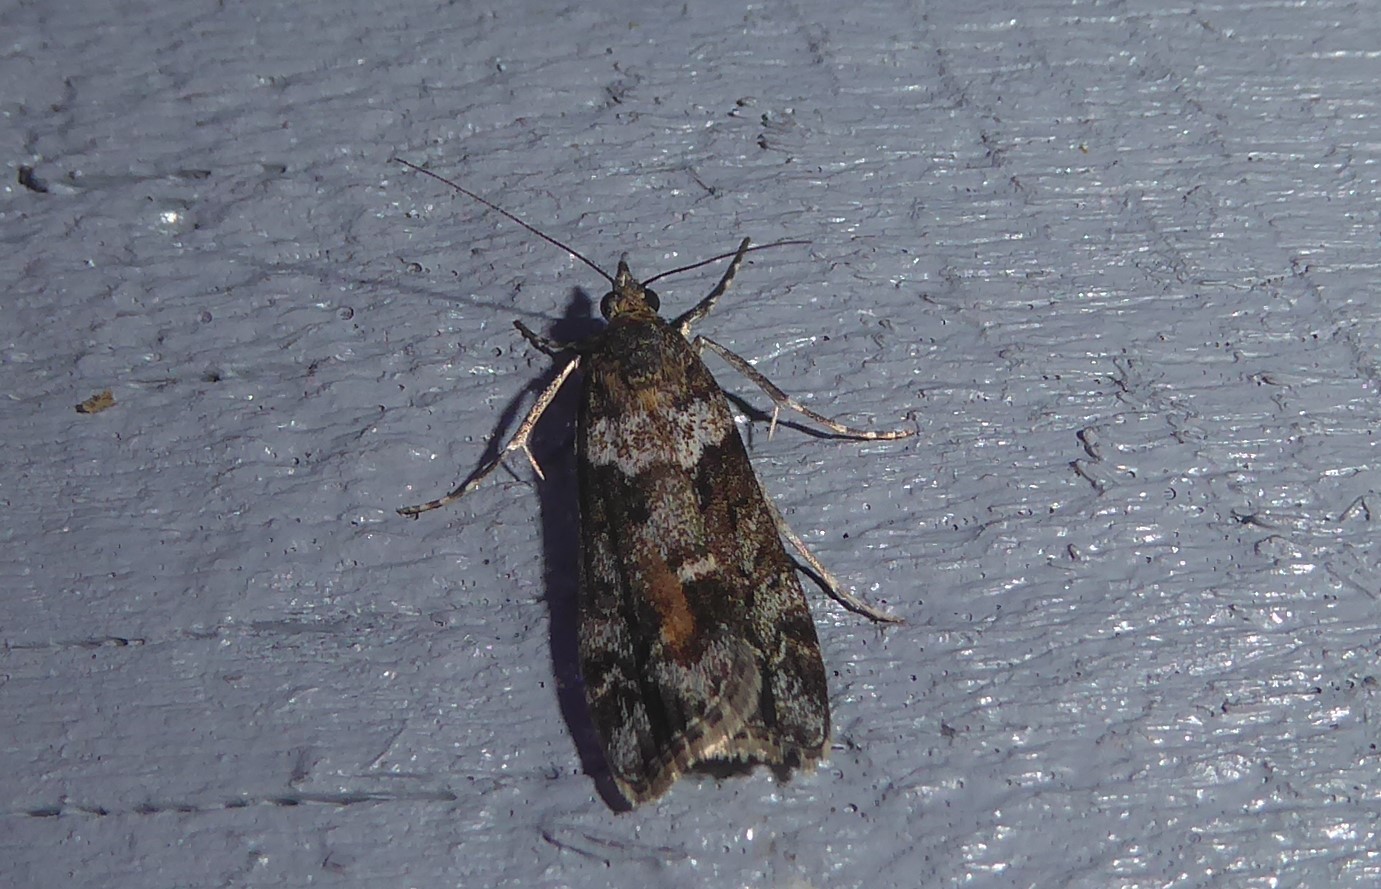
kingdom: Animalia
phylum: Arthropoda
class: Insecta
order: Lepidoptera
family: Crambidae
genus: Eudonia
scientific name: Eudonia submarginalis
